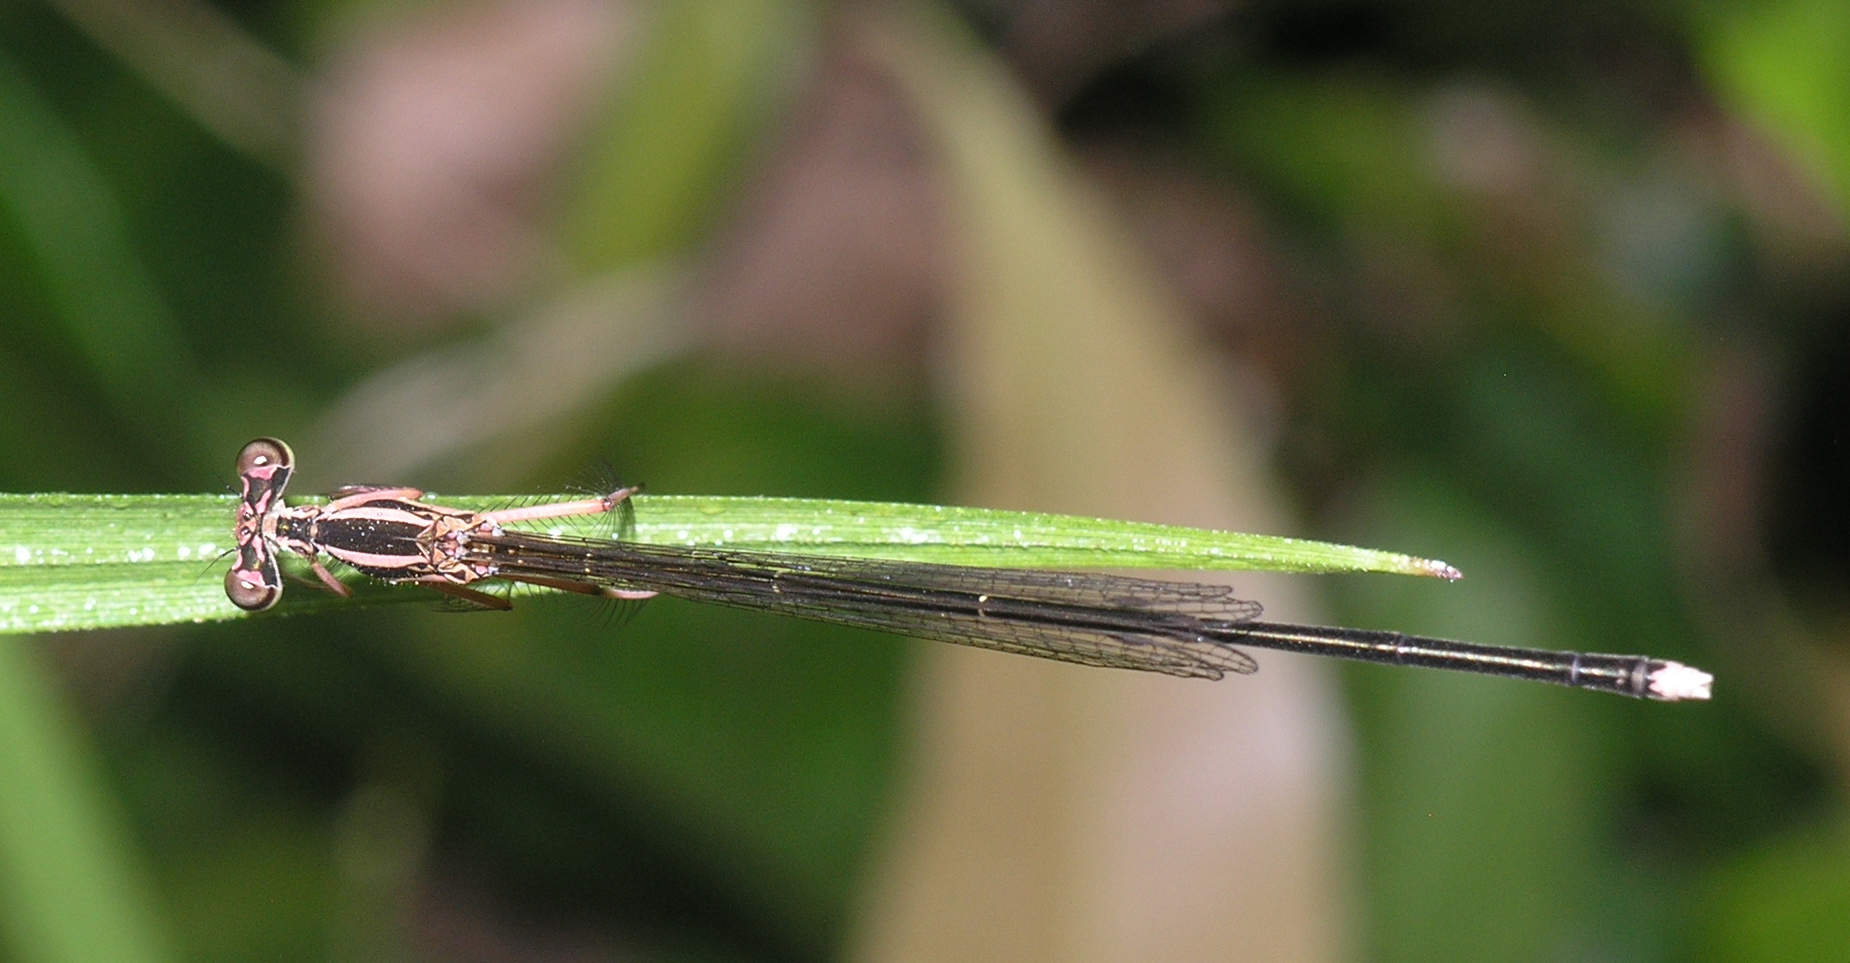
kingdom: Animalia
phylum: Arthropoda
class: Insecta
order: Odonata
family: Platycnemididae
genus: Pseudocopera
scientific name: Pseudocopera ciliata
